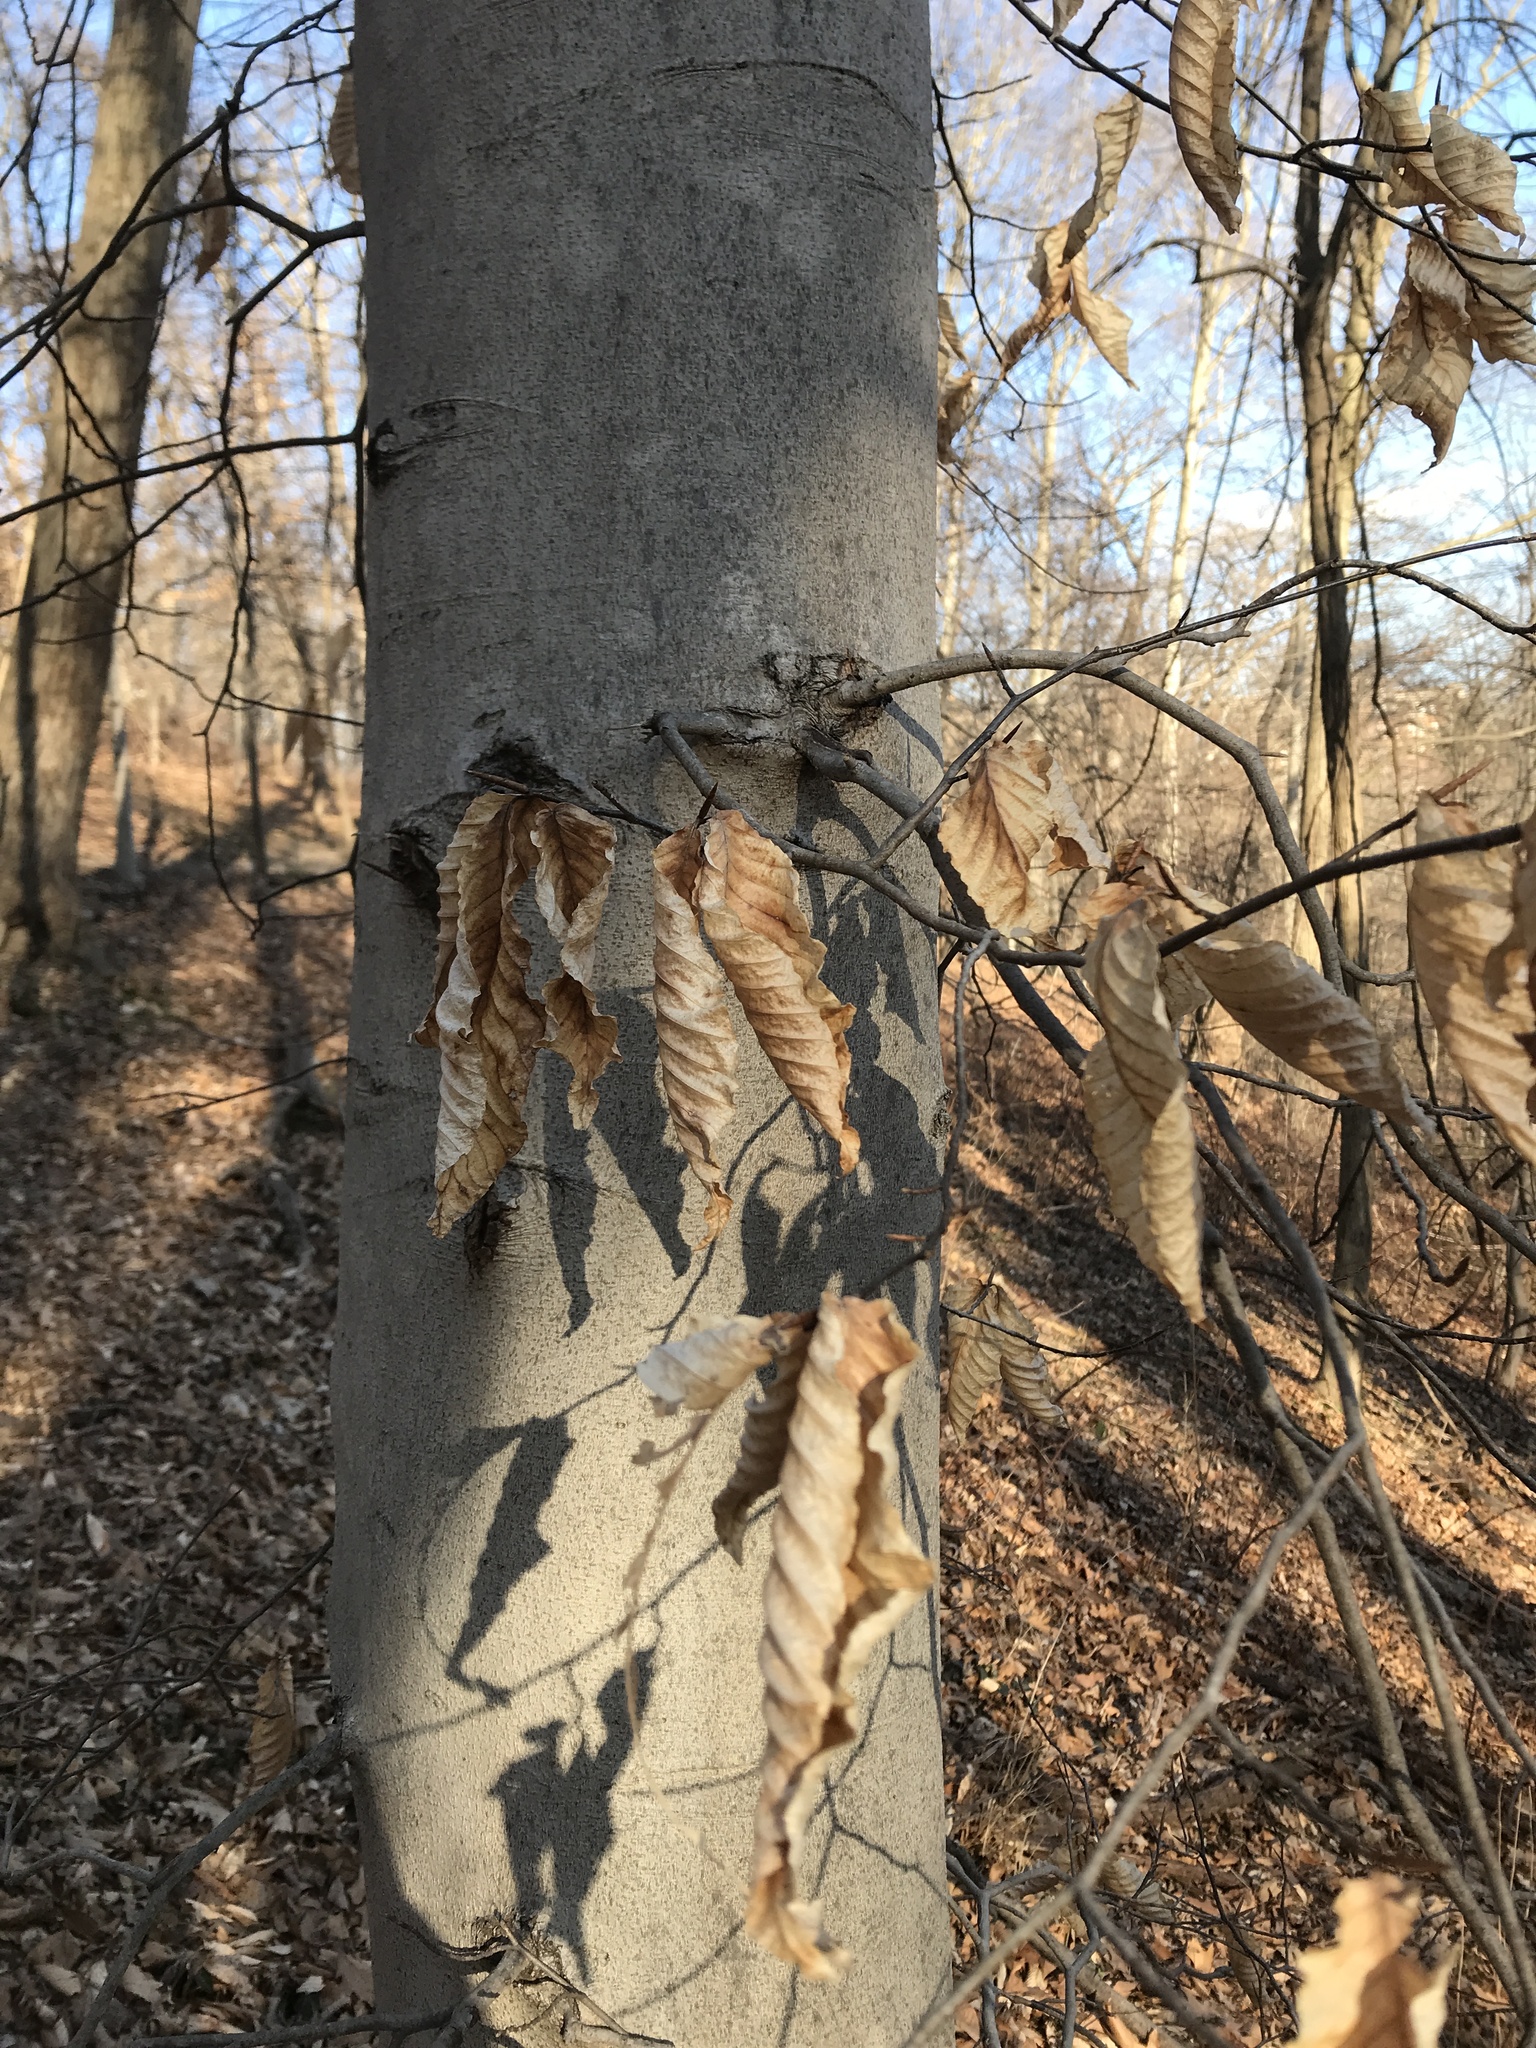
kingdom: Plantae
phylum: Tracheophyta
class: Magnoliopsida
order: Fagales
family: Fagaceae
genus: Fagus
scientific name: Fagus grandifolia
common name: American beech
